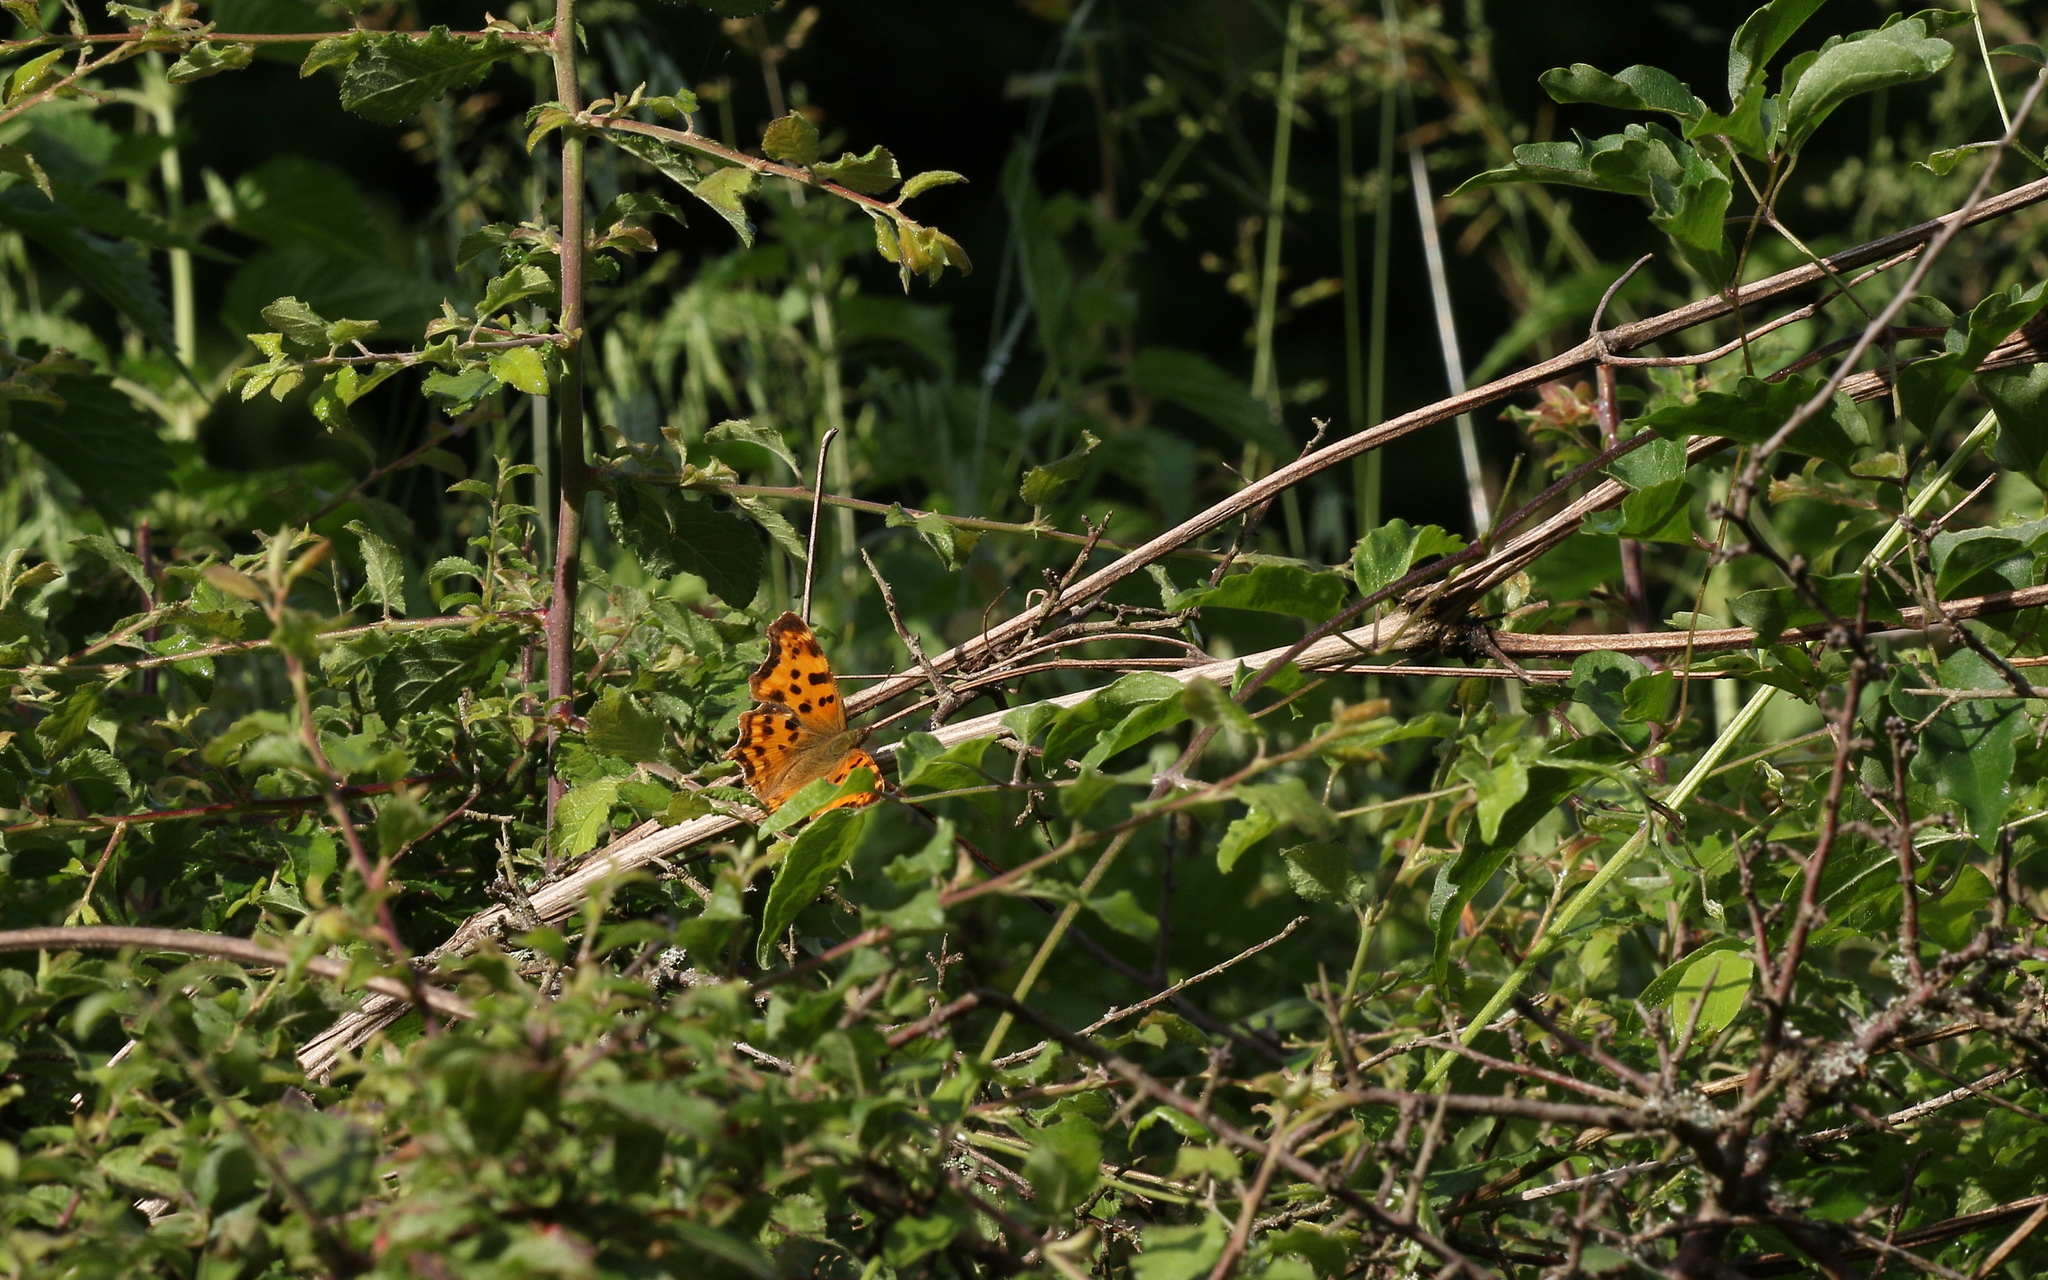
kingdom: Animalia
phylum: Arthropoda
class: Insecta
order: Lepidoptera
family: Nymphalidae
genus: Polygonia
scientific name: Polygonia c-album
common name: Comma
